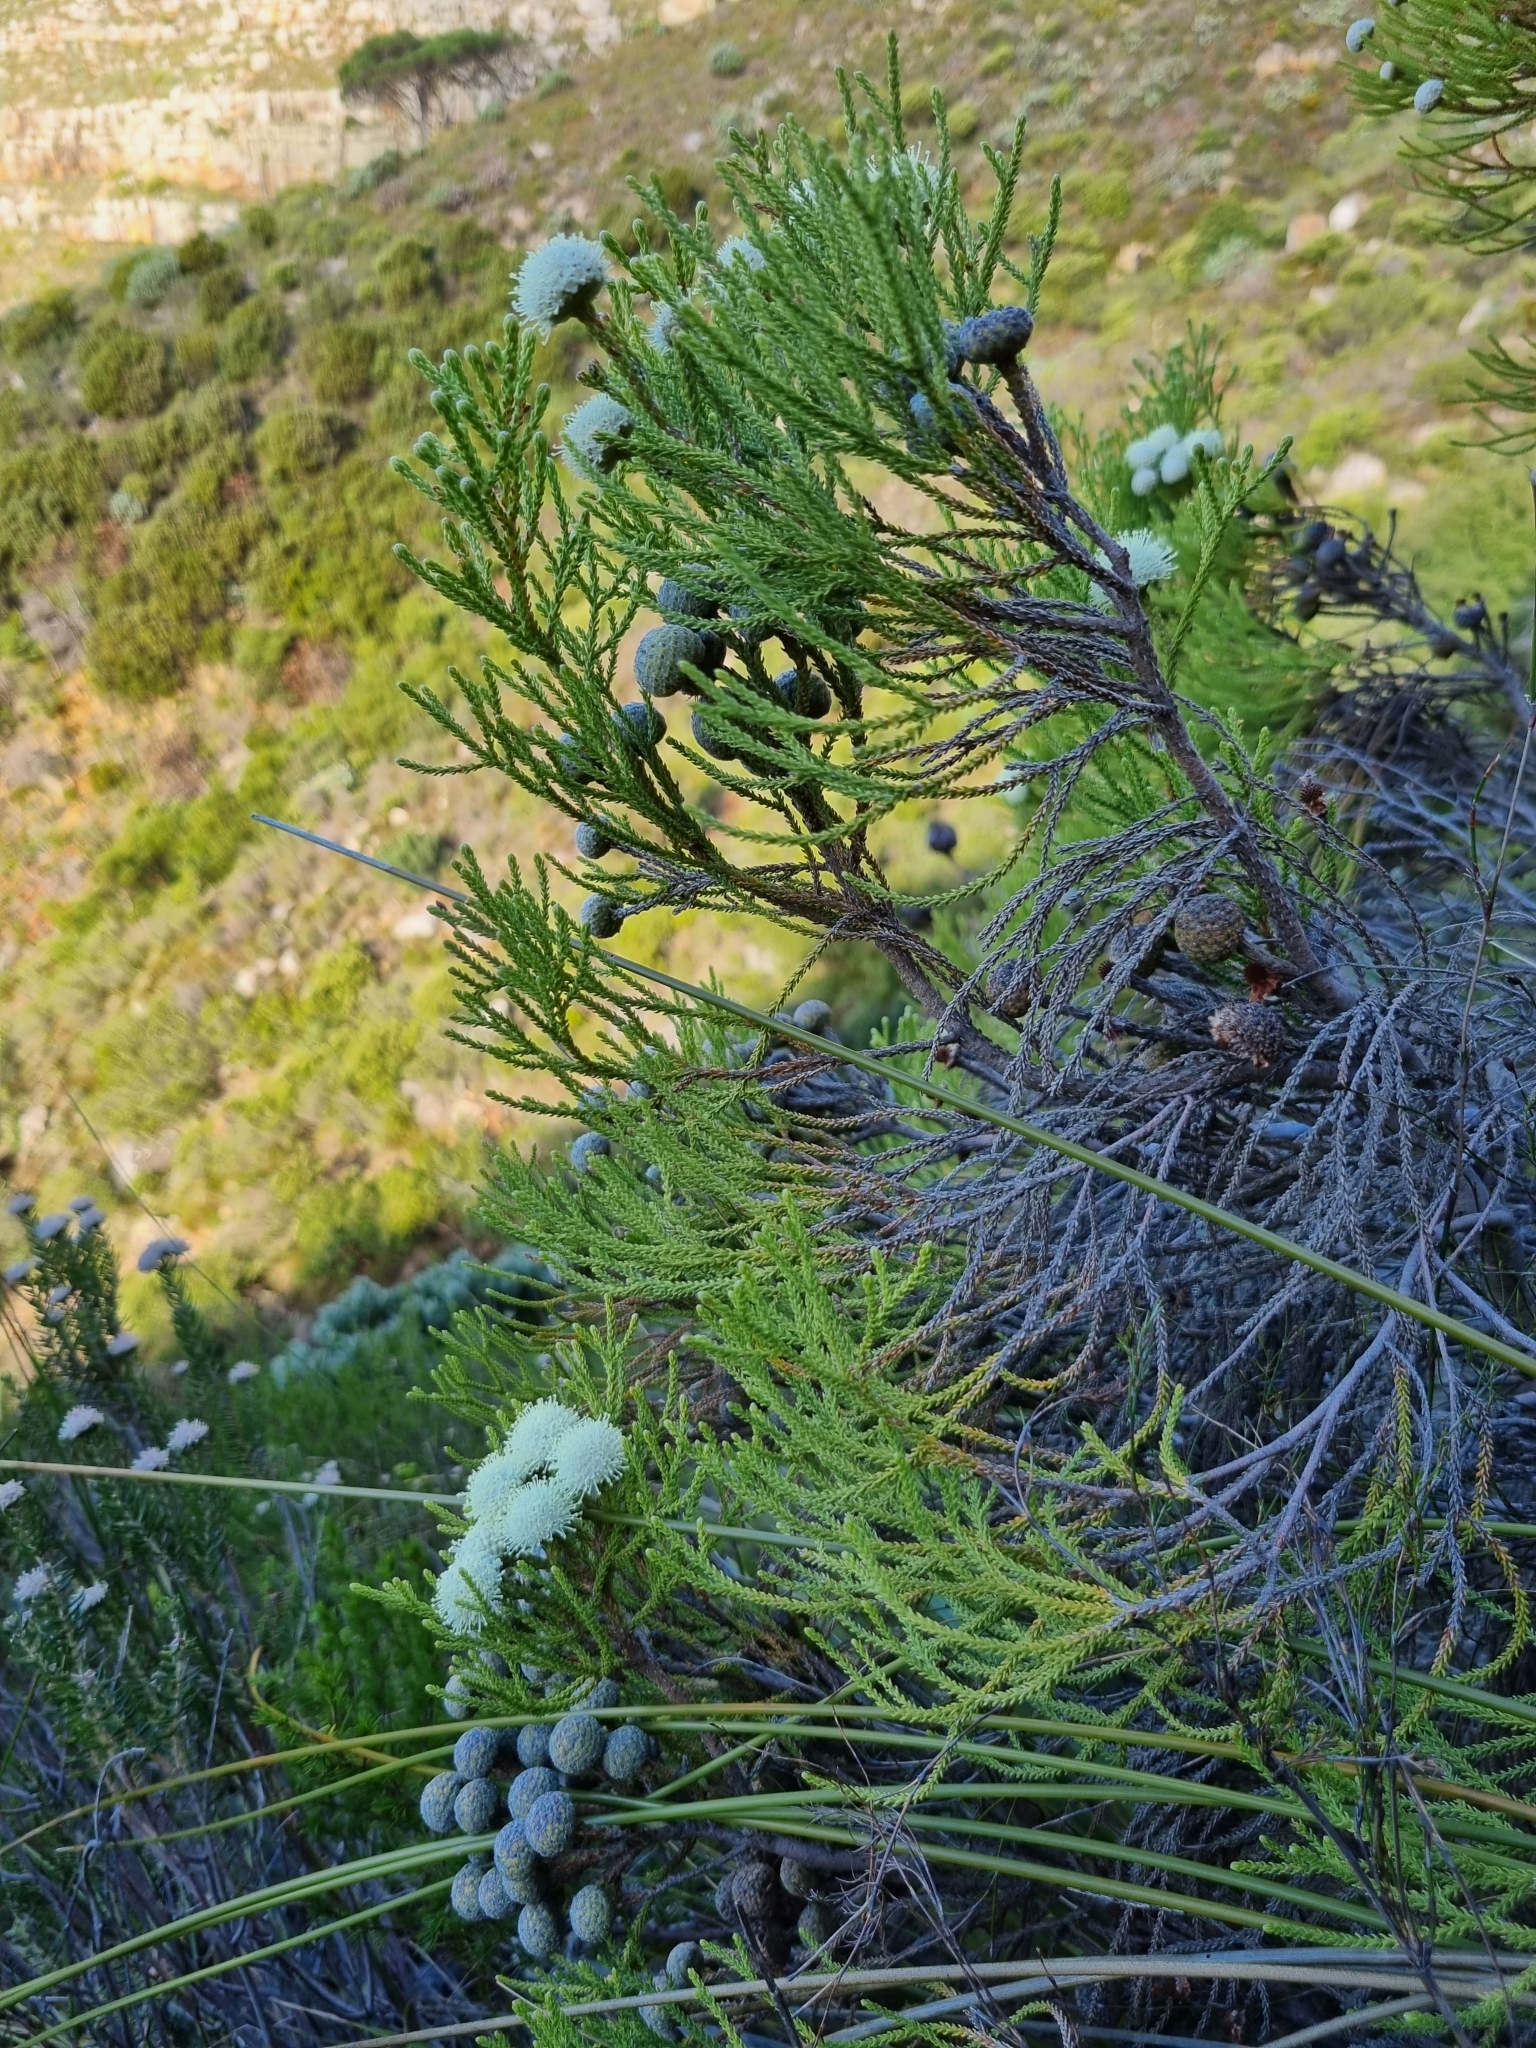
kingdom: Plantae
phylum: Tracheophyta
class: Magnoliopsida
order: Bruniales
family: Bruniaceae
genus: Brunia
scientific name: Brunia noduliflora
